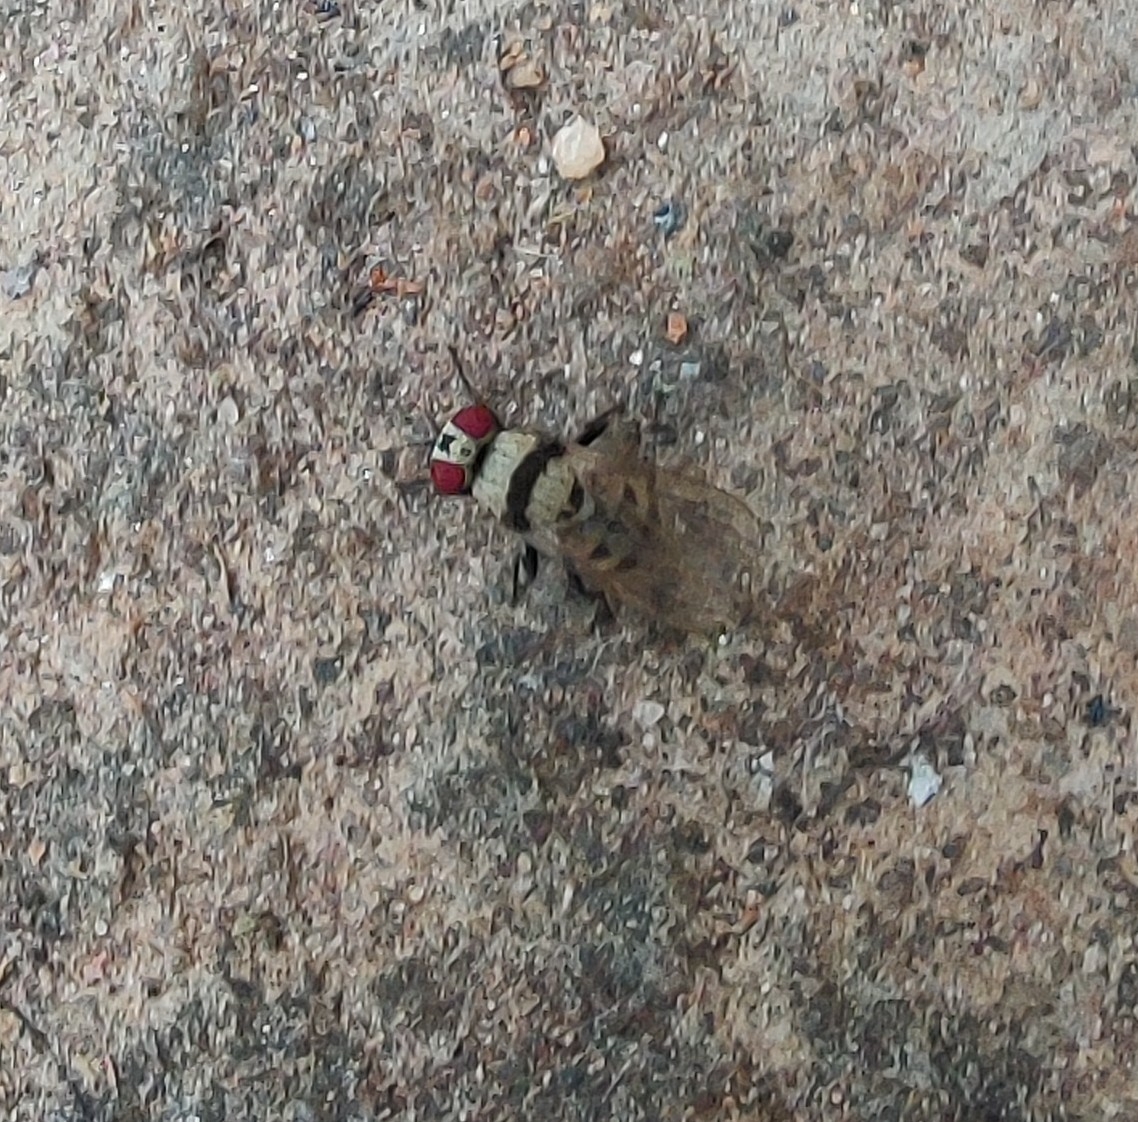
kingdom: Animalia
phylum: Arthropoda
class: Insecta
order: Diptera
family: Anthomyiidae
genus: Anthomyia
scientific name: Anthomyia illocata
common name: Fly
